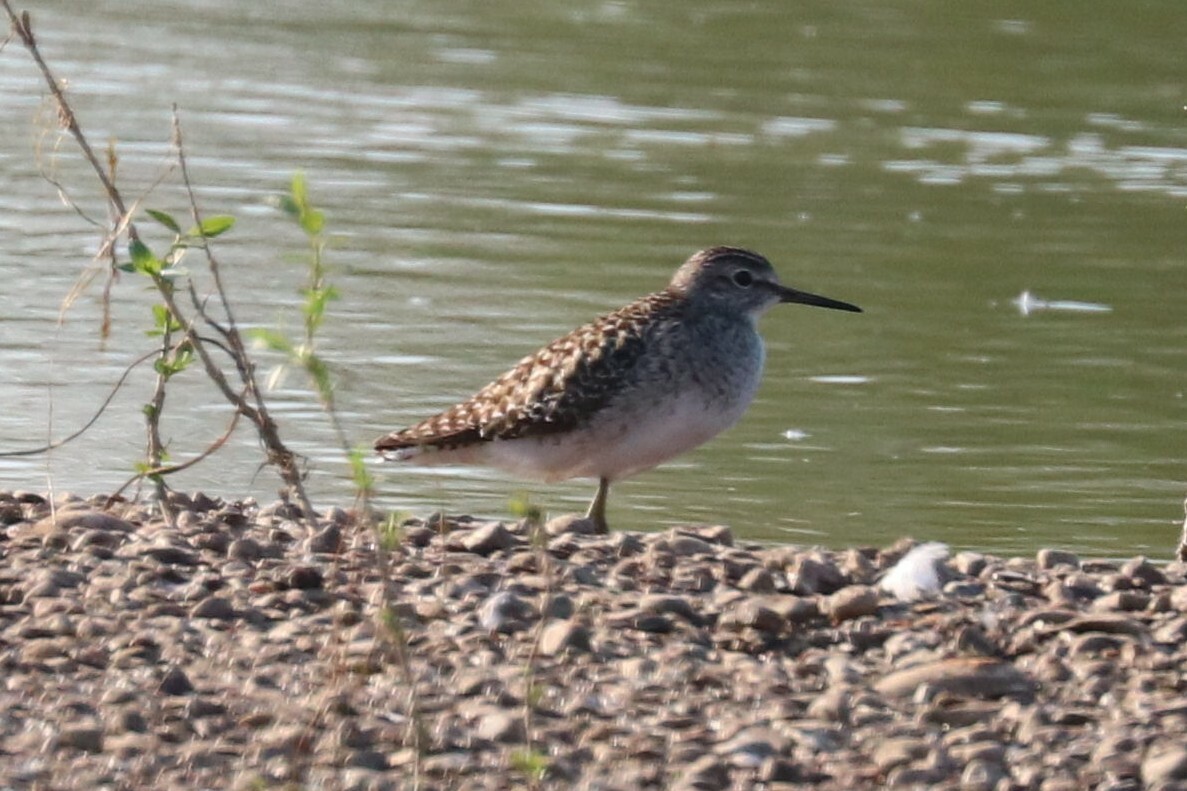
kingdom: Animalia
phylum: Chordata
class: Aves
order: Charadriiformes
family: Scolopacidae
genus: Tringa
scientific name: Tringa glareola
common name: Wood sandpiper
